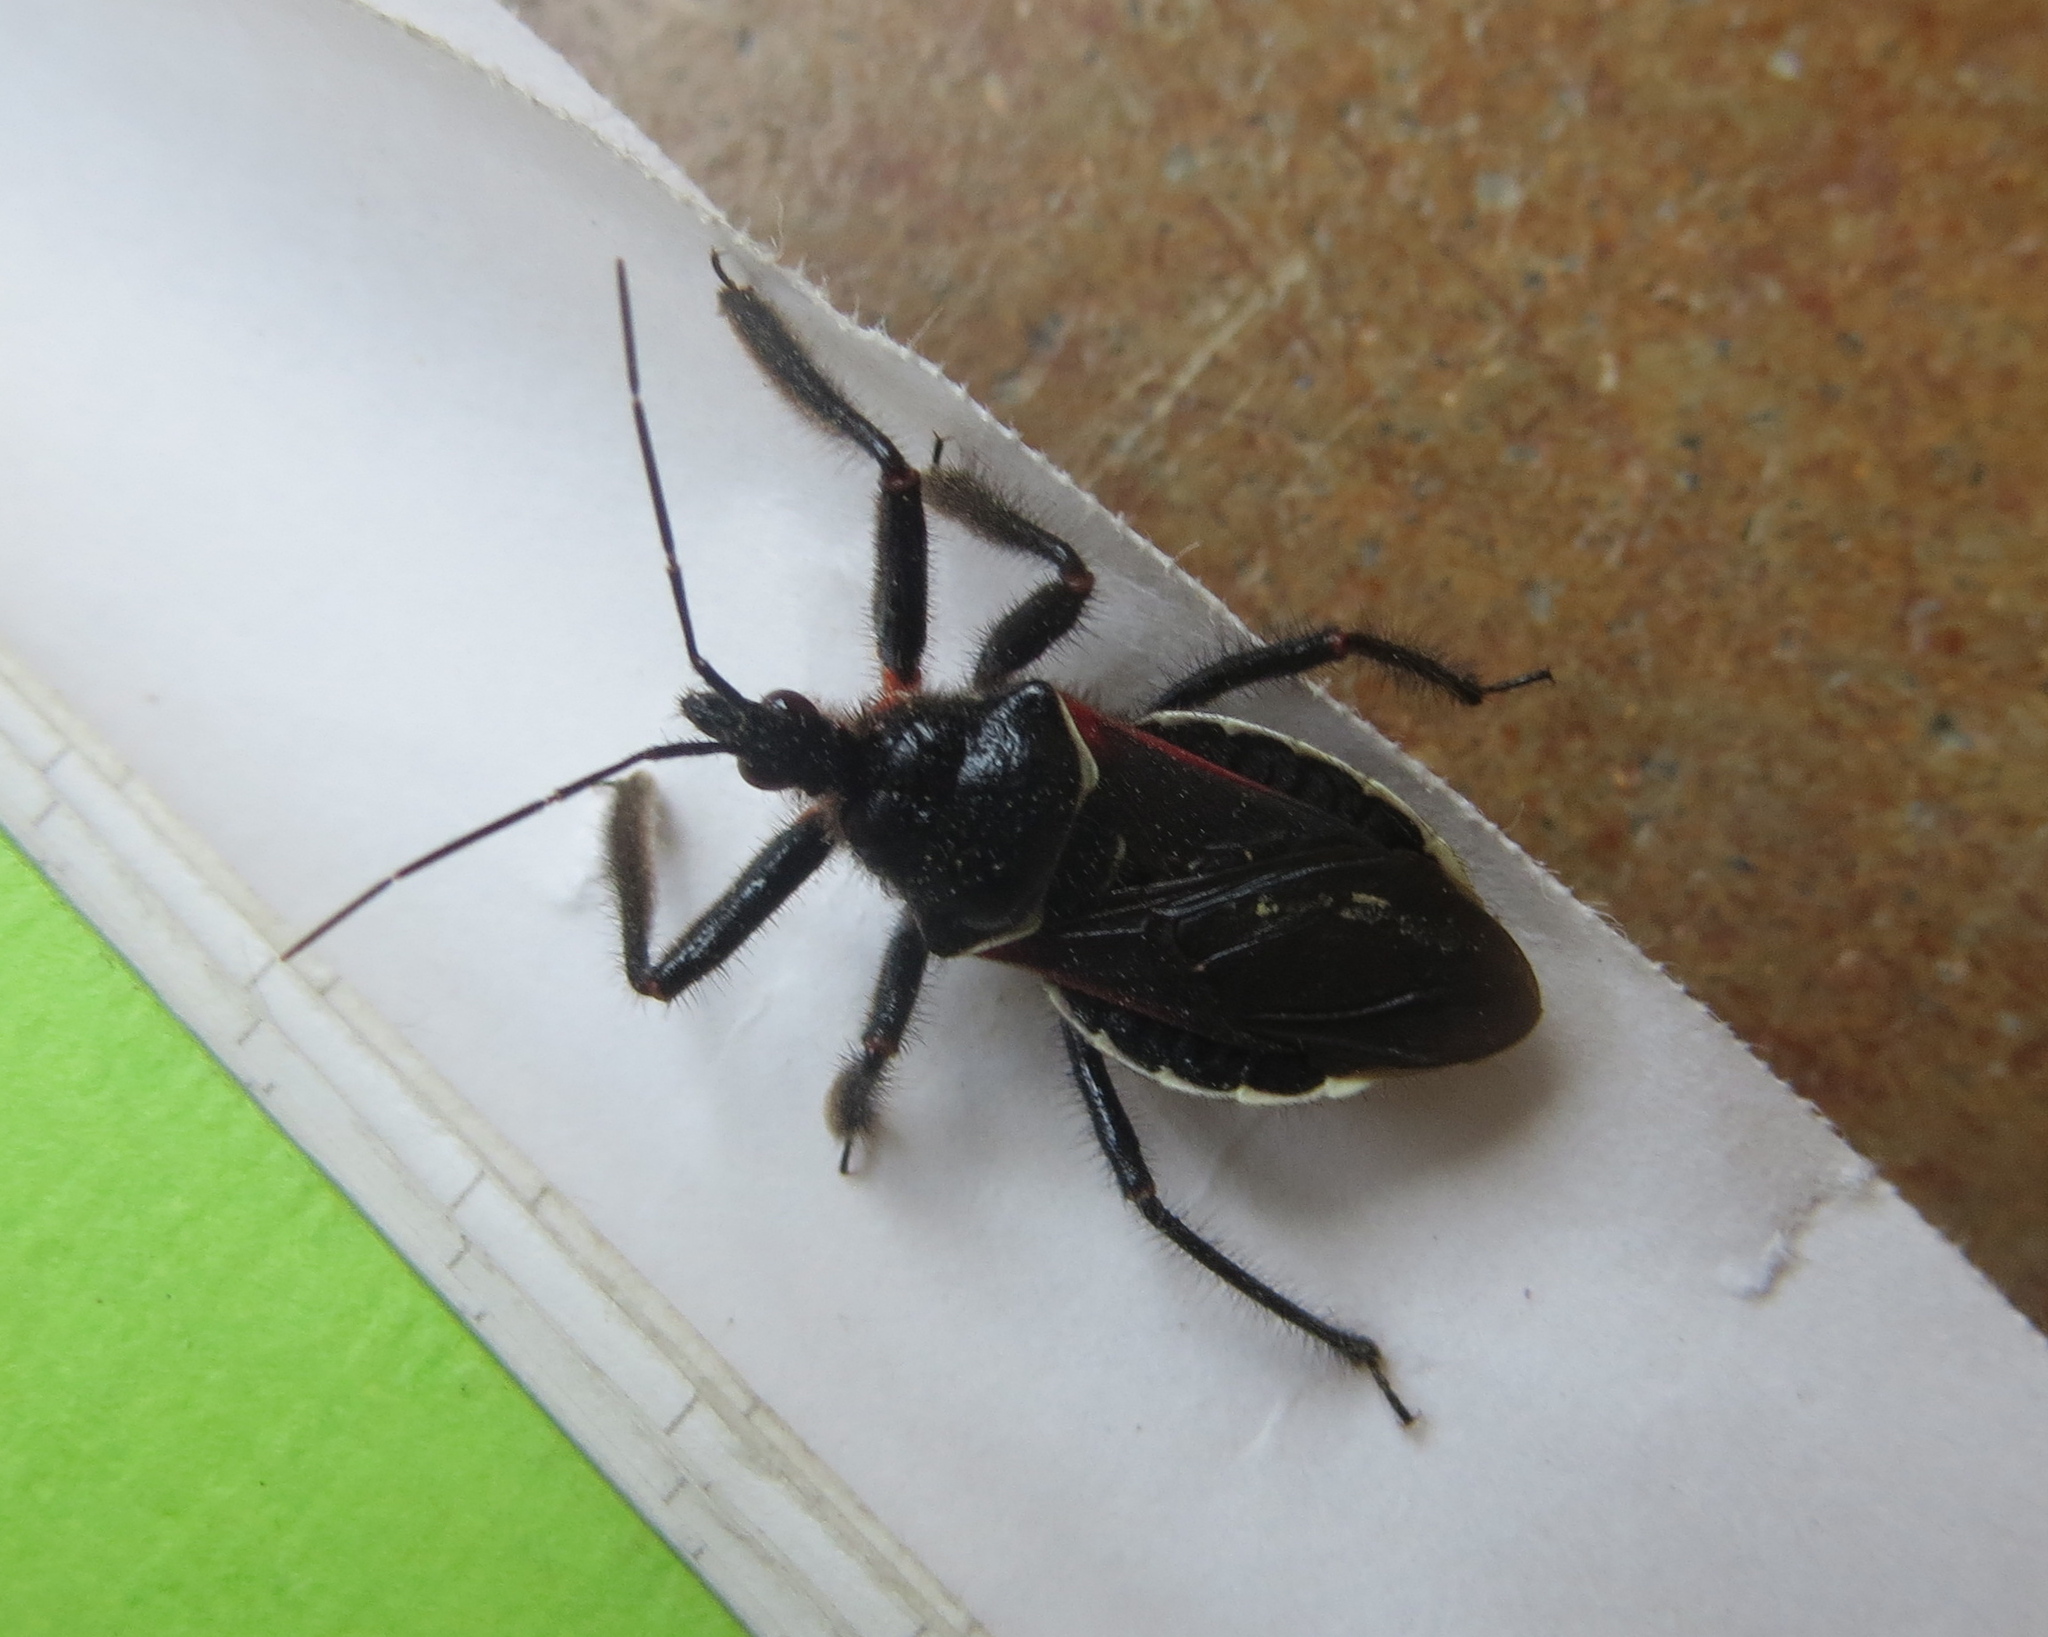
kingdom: Animalia
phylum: Arthropoda
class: Insecta
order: Hemiptera
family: Reduviidae
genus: Apiomerus
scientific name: Apiomerus californicus
